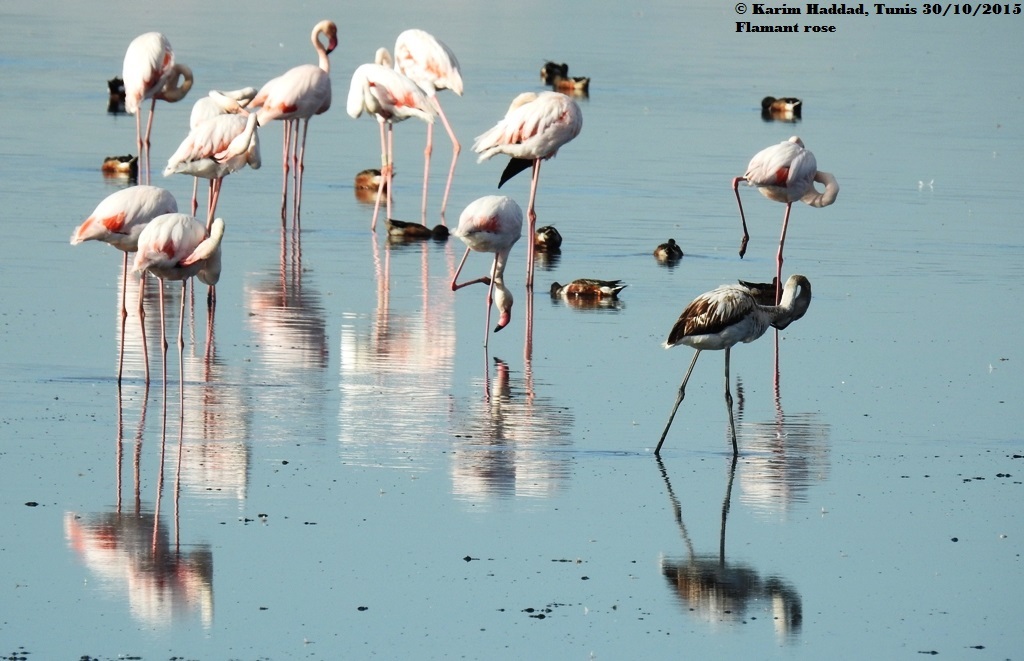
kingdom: Animalia
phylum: Chordata
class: Aves
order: Phoenicopteriformes
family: Phoenicopteridae
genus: Phoenicopterus
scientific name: Phoenicopterus roseus
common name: Greater flamingo
